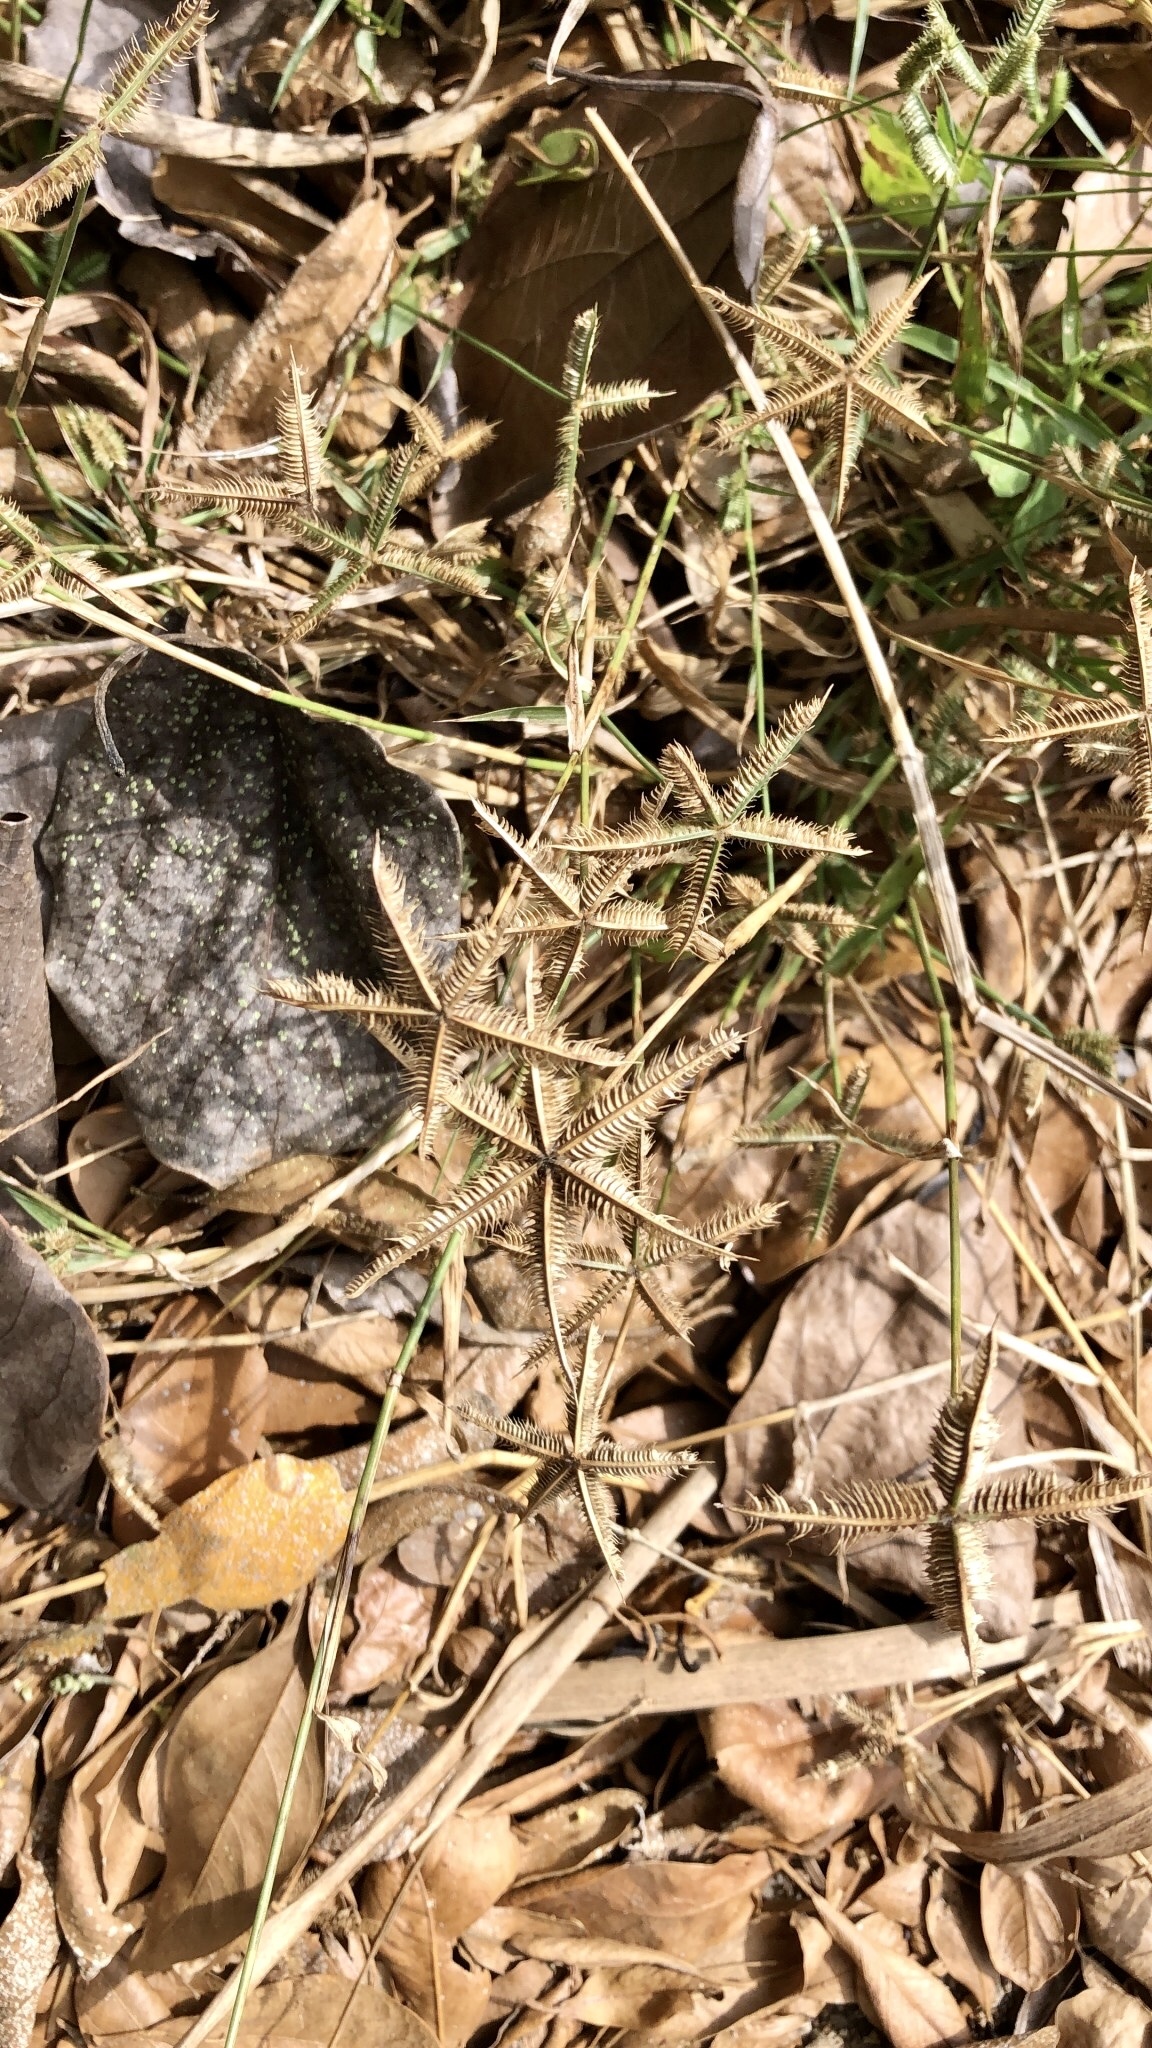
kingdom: Plantae
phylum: Tracheophyta
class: Liliopsida
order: Poales
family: Poaceae
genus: Dactyloctenium
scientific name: Dactyloctenium aegyptium
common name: Egyptian grass
